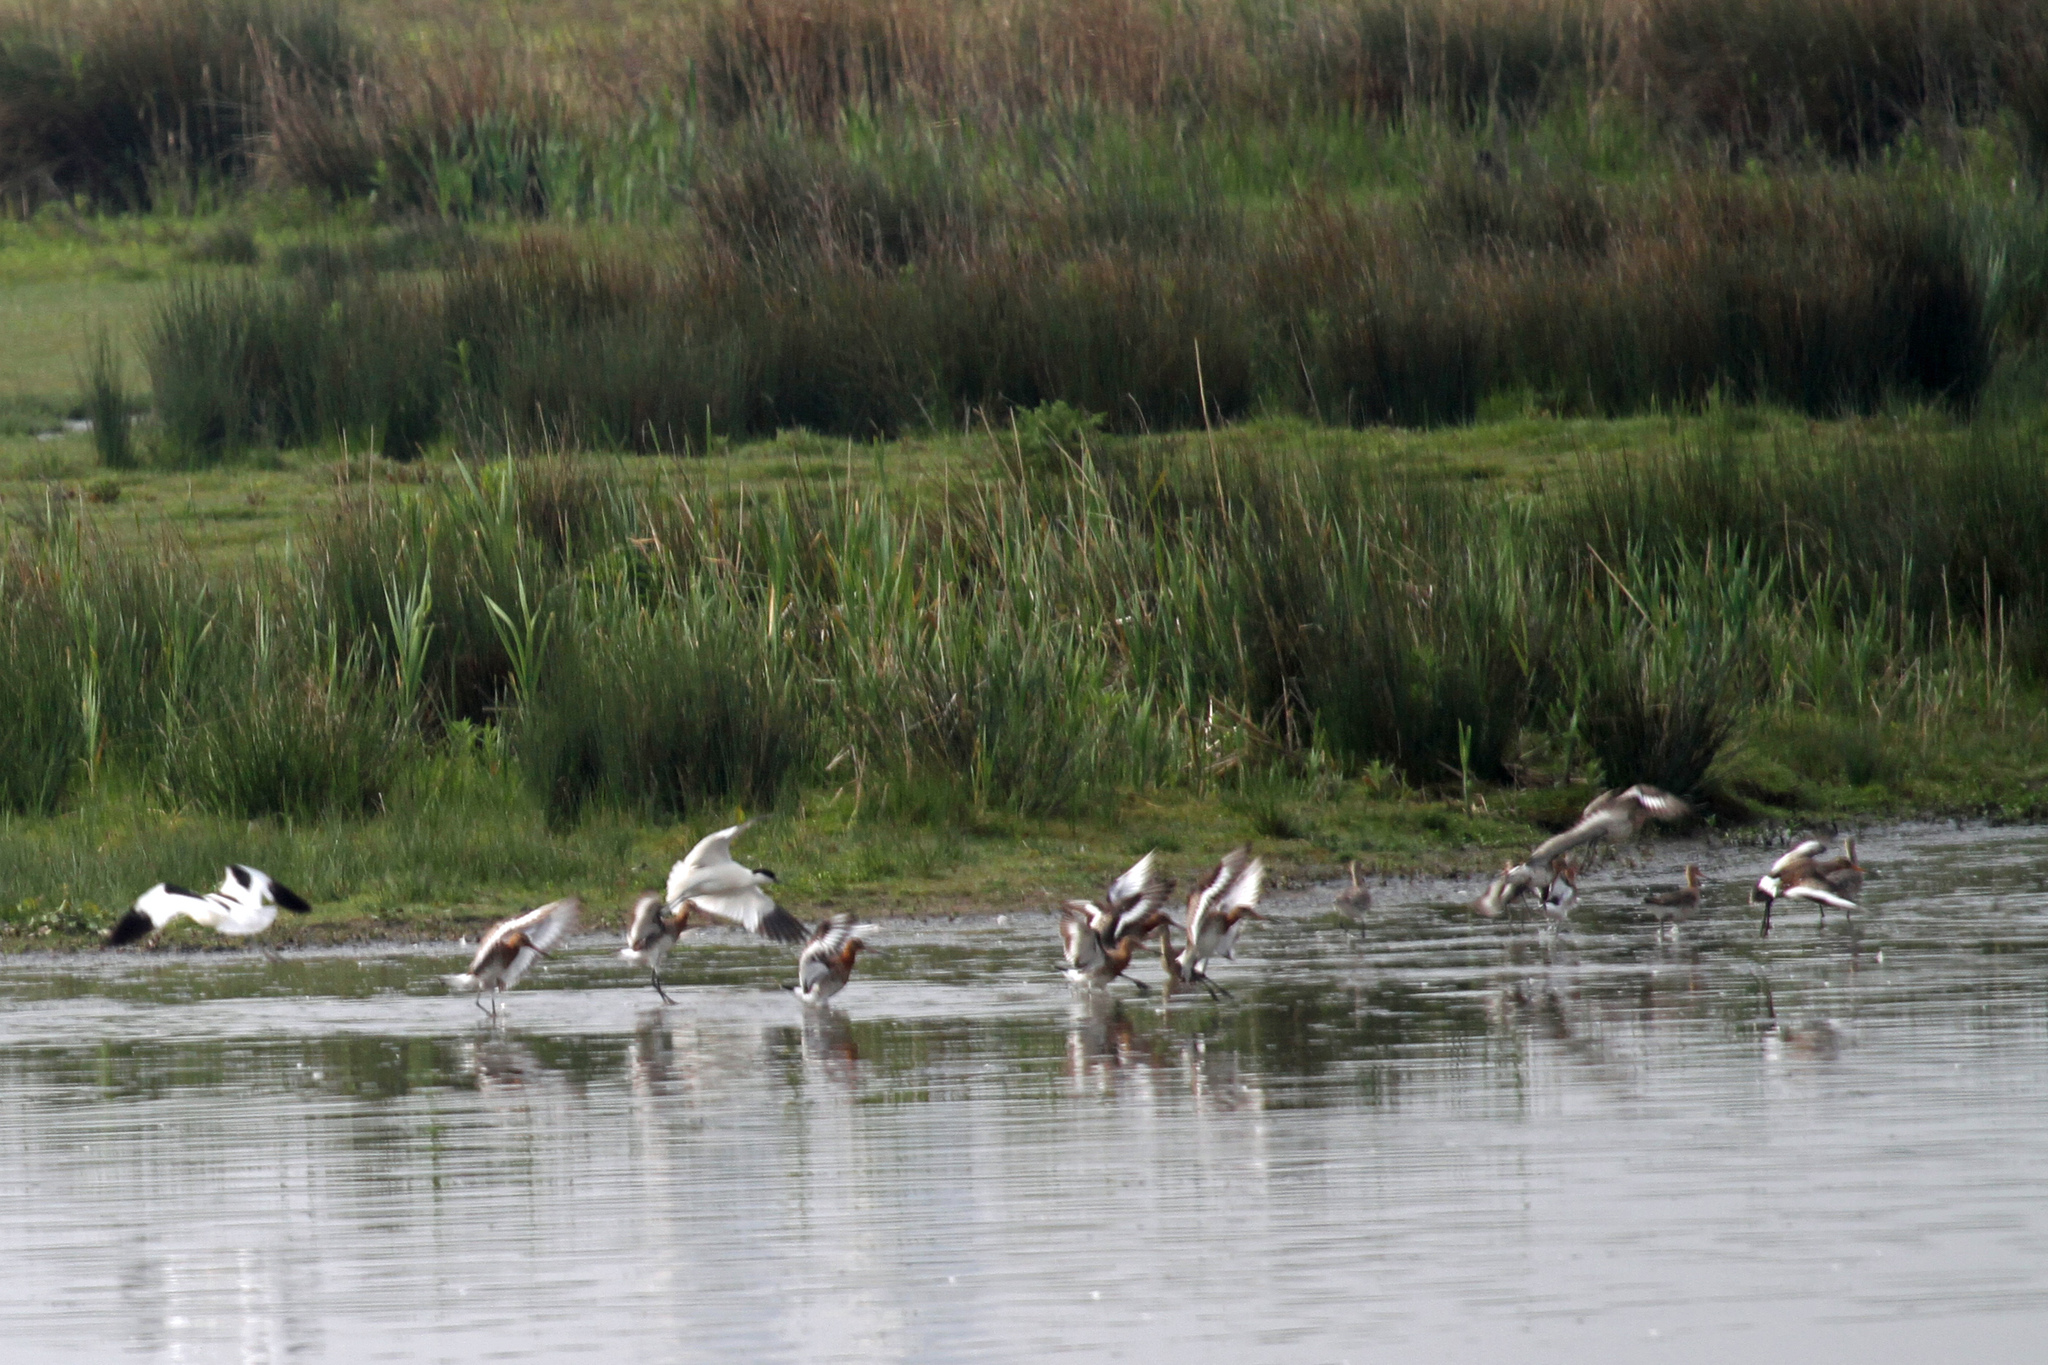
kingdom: Animalia
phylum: Chordata
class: Aves
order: Charadriiformes
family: Recurvirostridae
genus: Recurvirostra
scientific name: Recurvirostra avosetta
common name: Pied avocet
